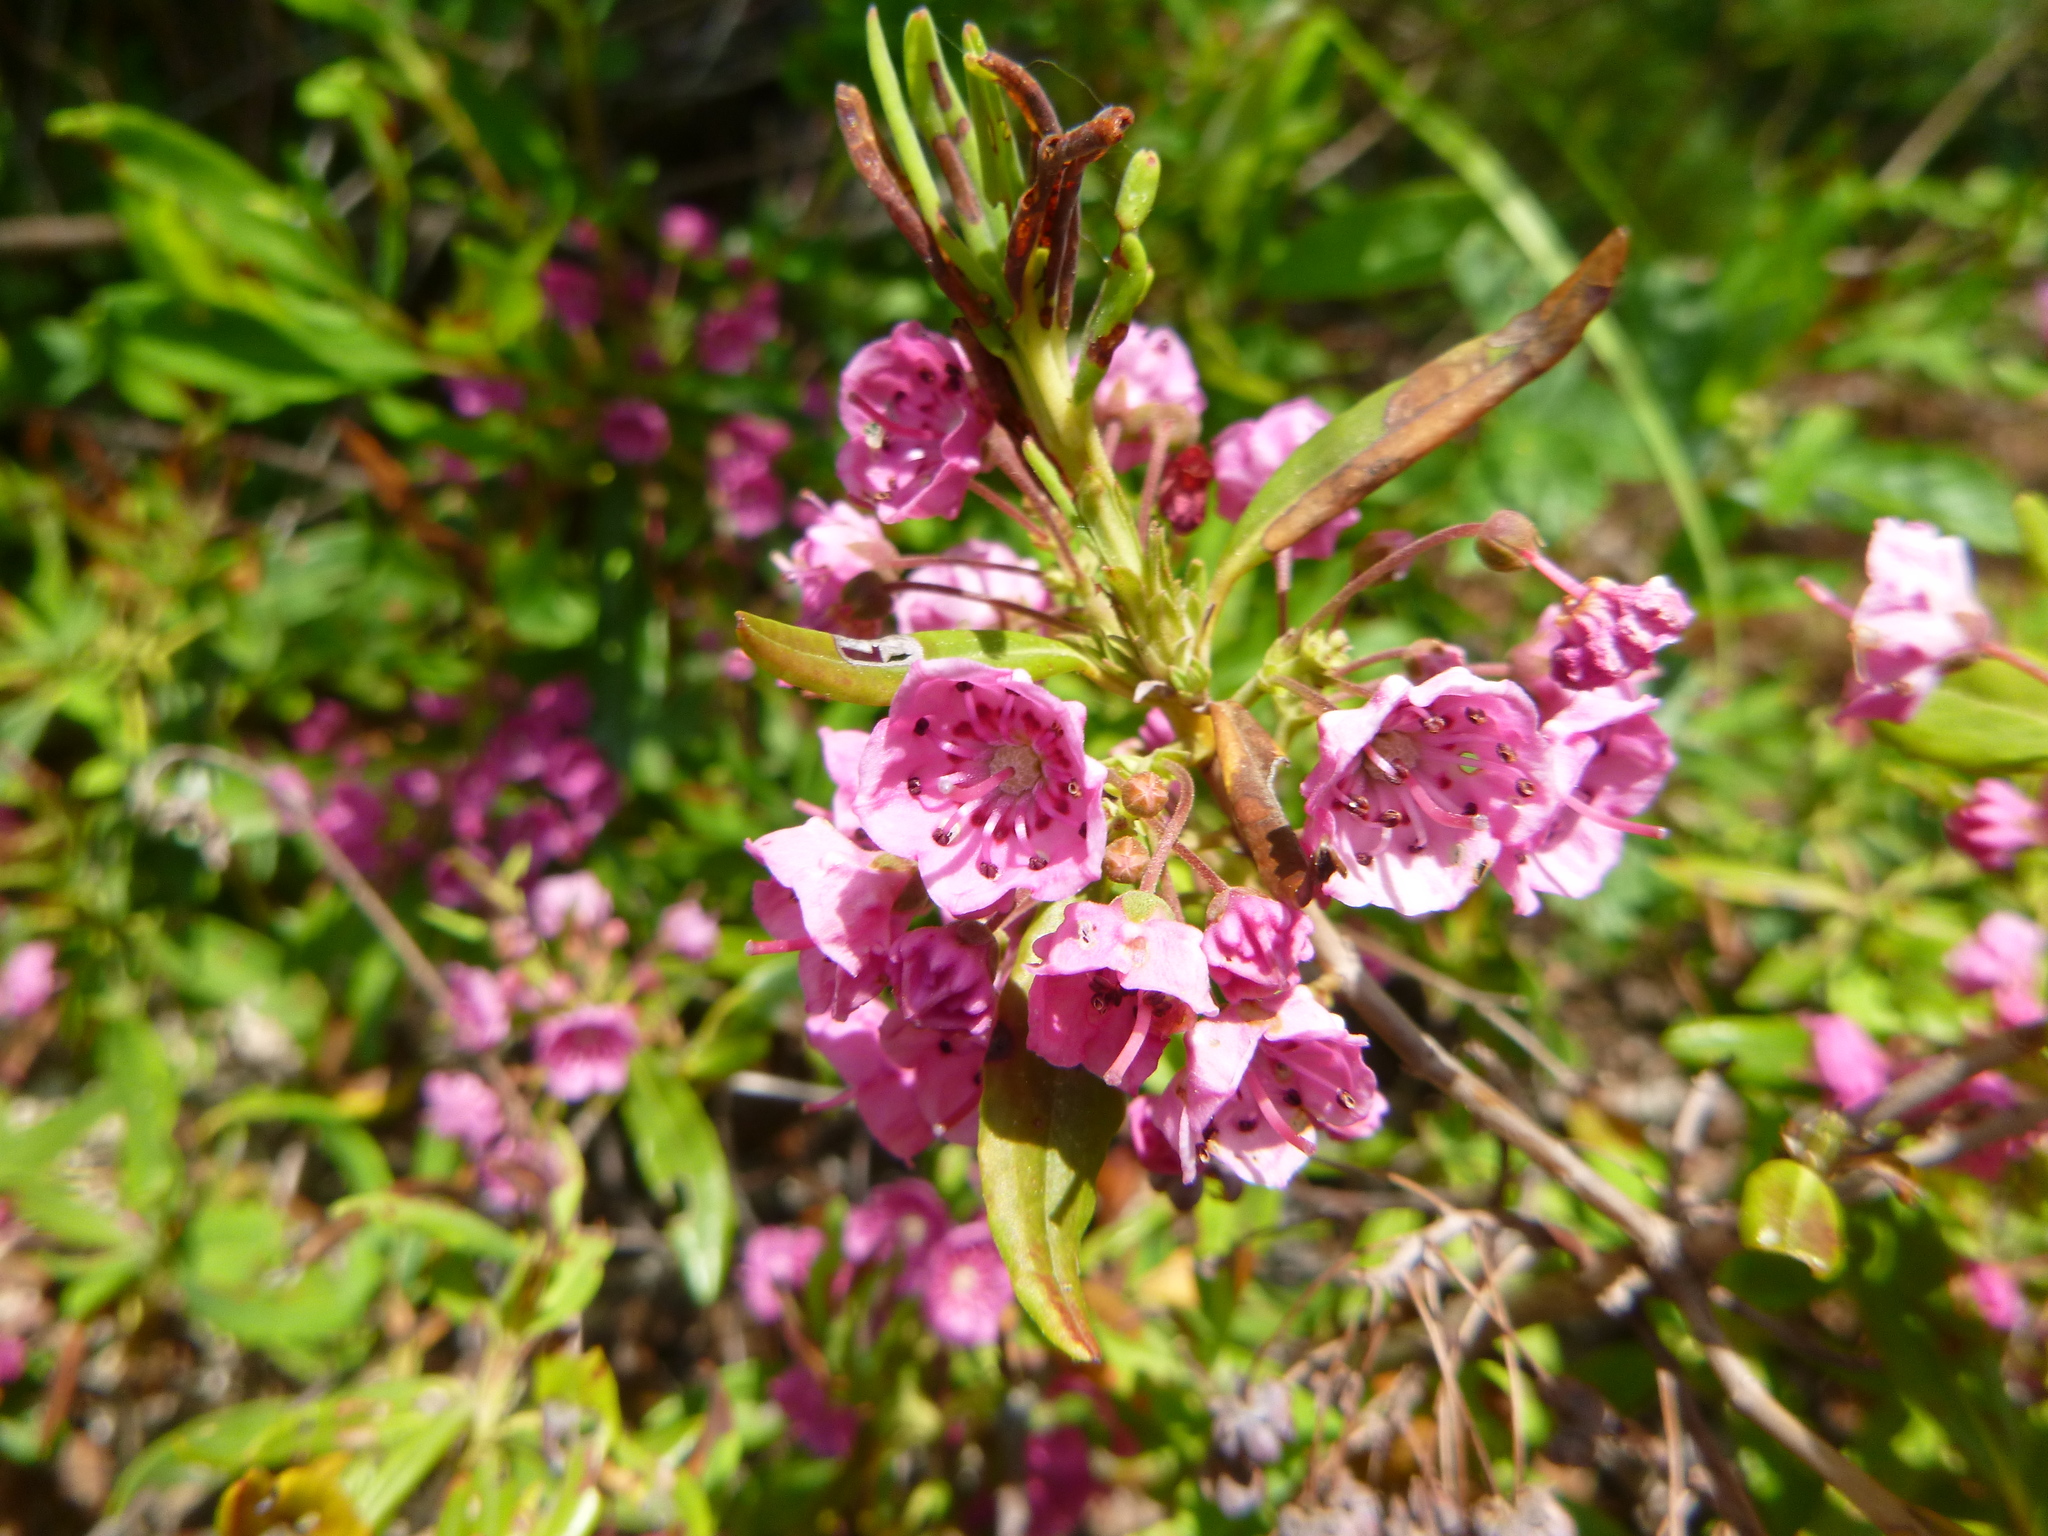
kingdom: Plantae
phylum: Tracheophyta
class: Magnoliopsida
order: Ericales
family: Ericaceae
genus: Kalmia
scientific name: Kalmia angustifolia
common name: Sheep-laurel
